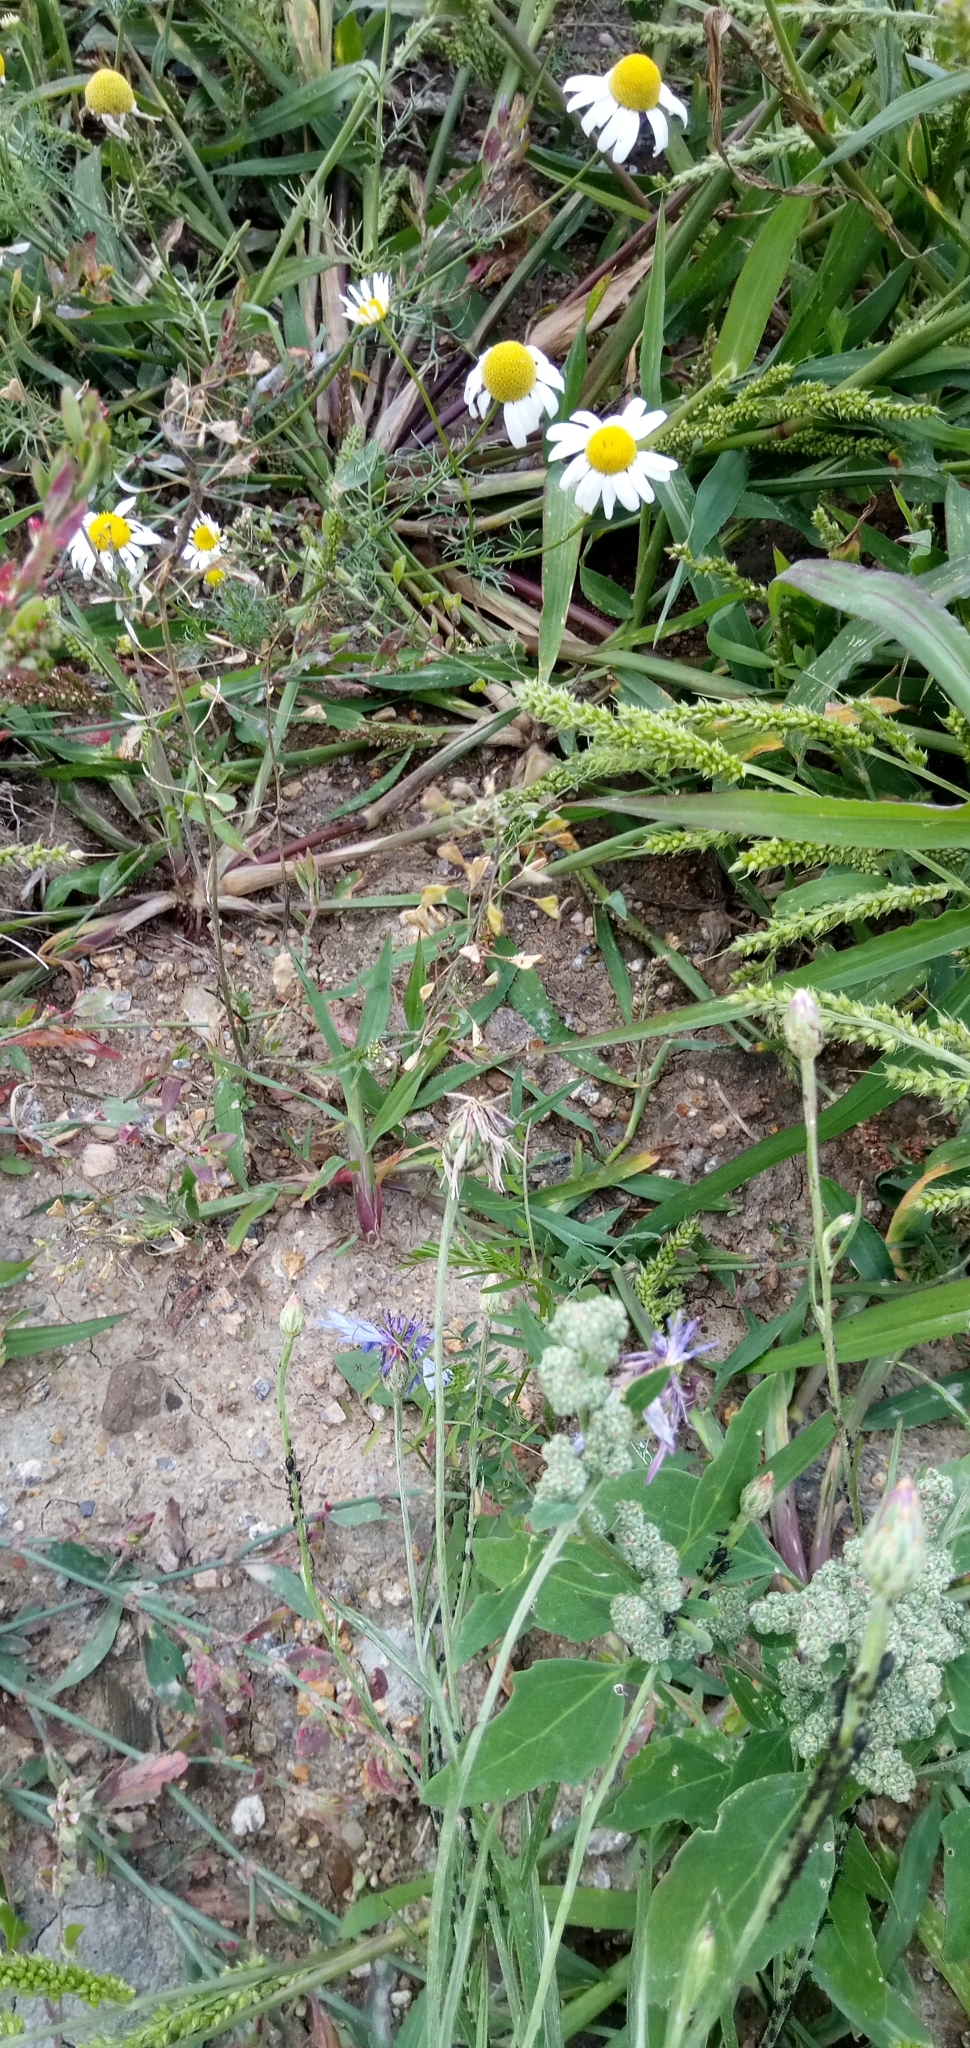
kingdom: Plantae
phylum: Tracheophyta
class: Magnoliopsida
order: Brassicales
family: Brassicaceae
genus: Capsella
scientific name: Capsella bursa-pastoris
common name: Shepherd's purse
